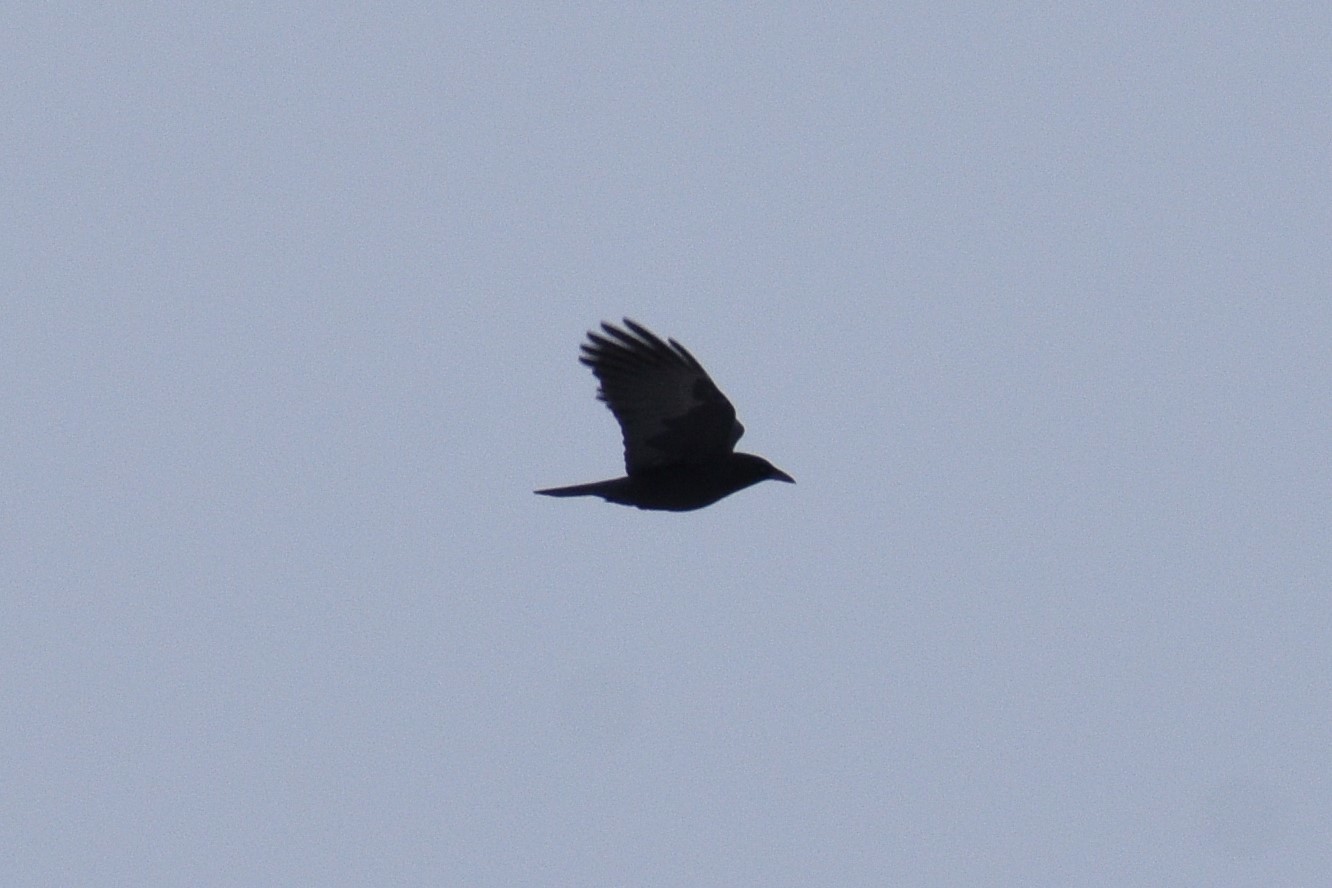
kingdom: Animalia
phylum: Chordata
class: Aves
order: Passeriformes
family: Corvidae
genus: Corvus
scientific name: Corvus brachyrhynchos
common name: American crow
